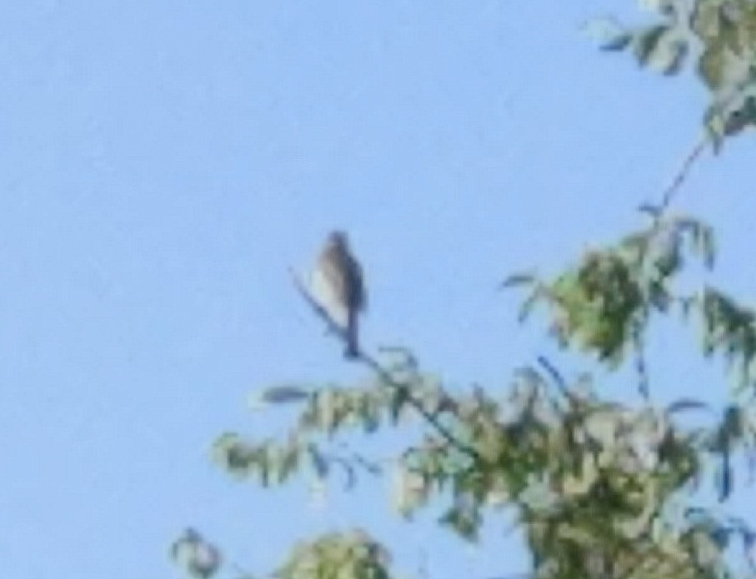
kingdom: Animalia
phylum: Chordata
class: Aves
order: Passeriformes
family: Muscicapidae
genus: Erithacus
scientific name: Erithacus rubecula
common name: European robin
